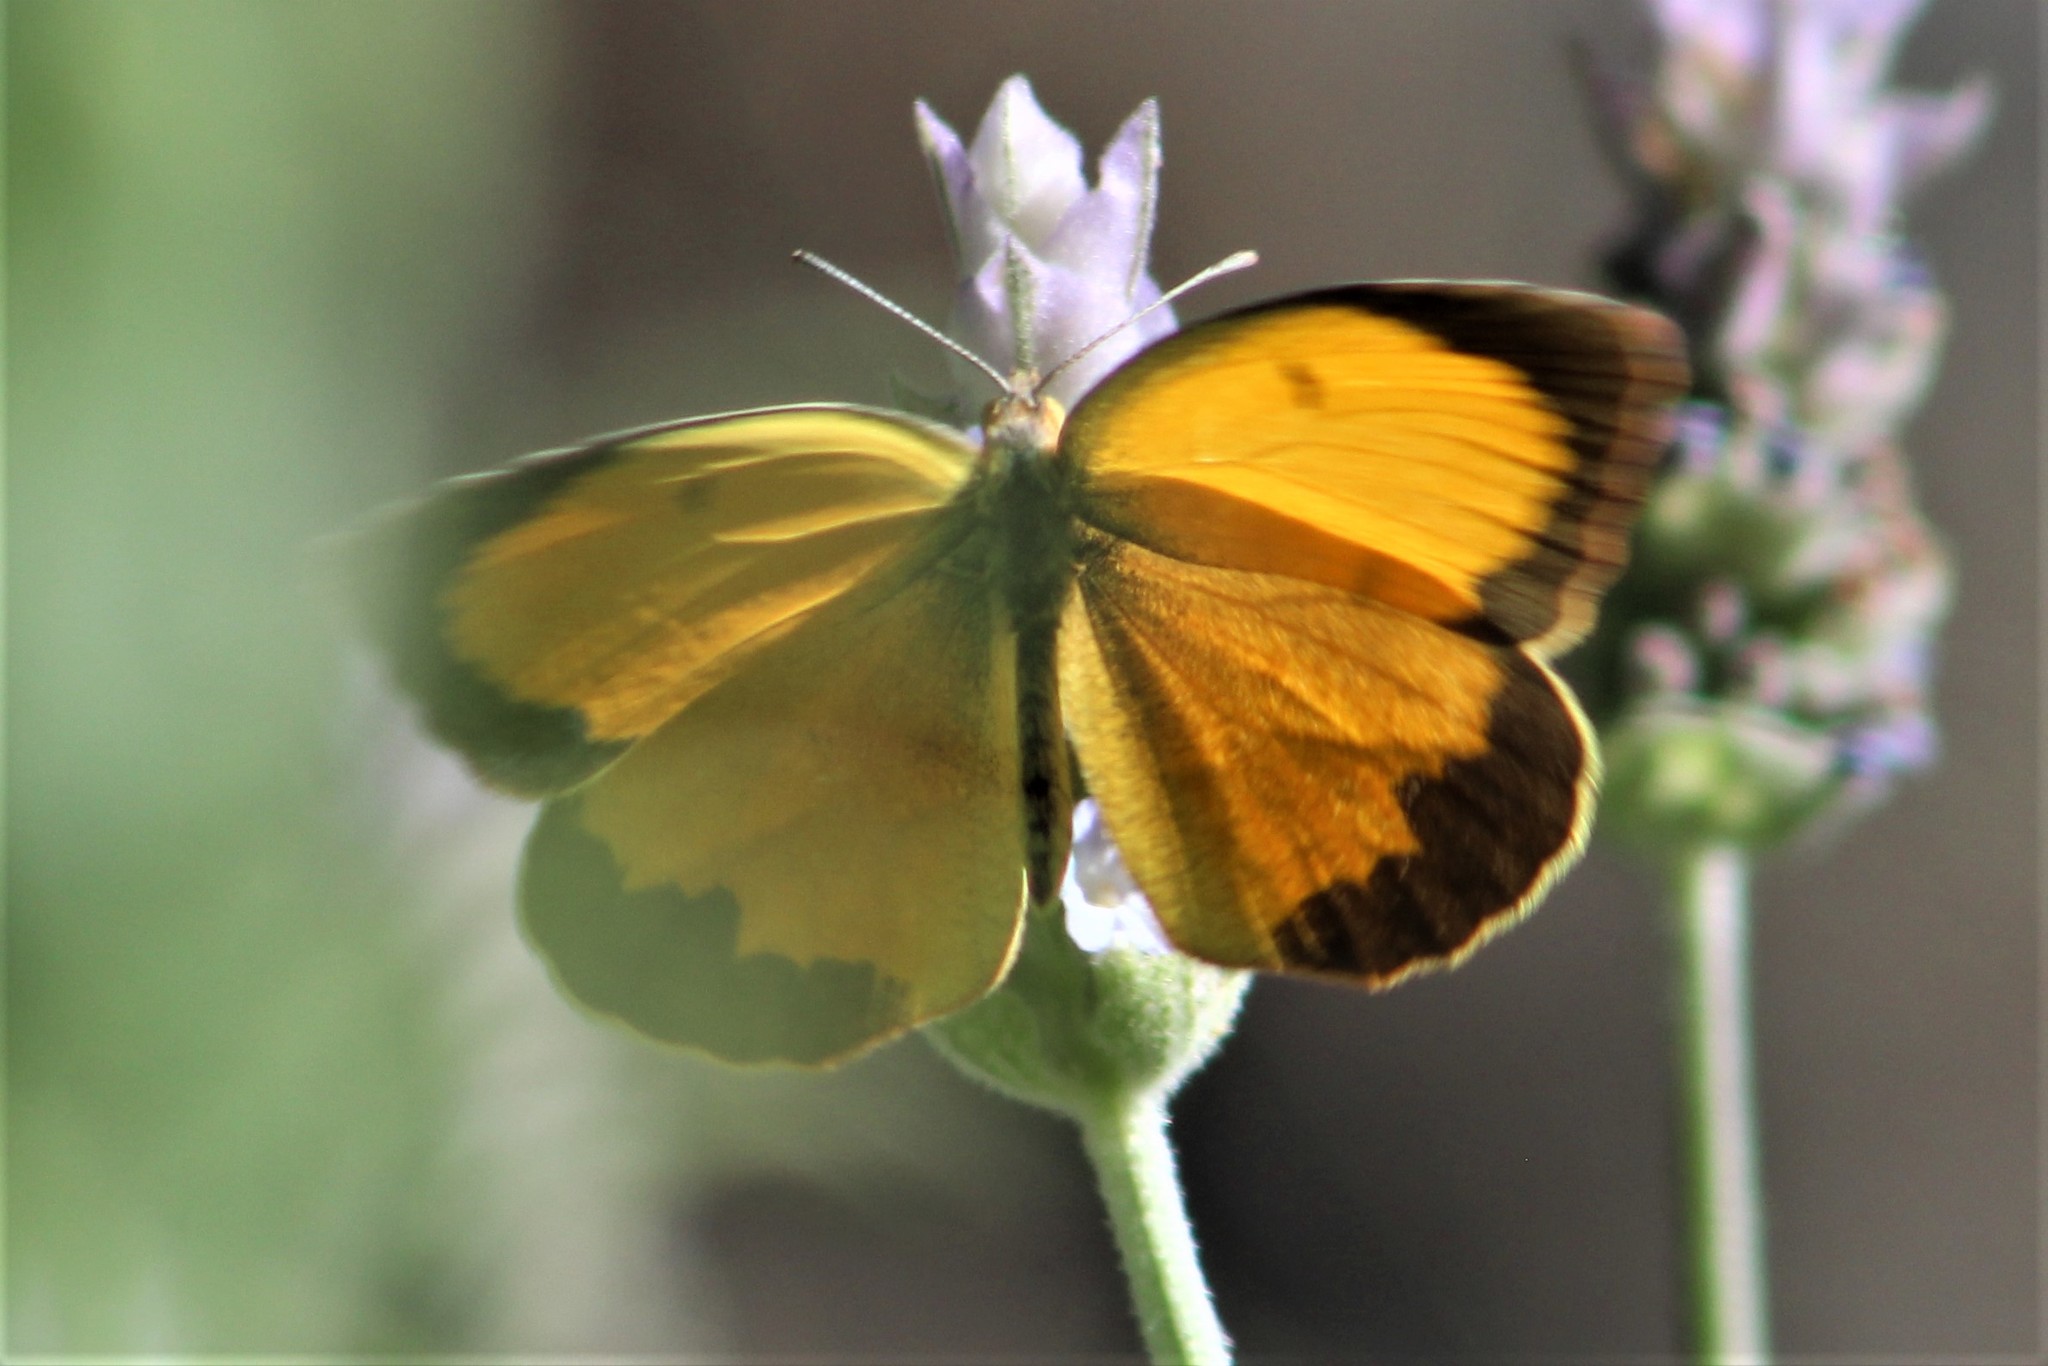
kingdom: Animalia
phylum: Arthropoda
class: Insecta
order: Lepidoptera
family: Pieridae
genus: Abaeis
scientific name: Abaeis nicippe
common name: Sleepy orange
